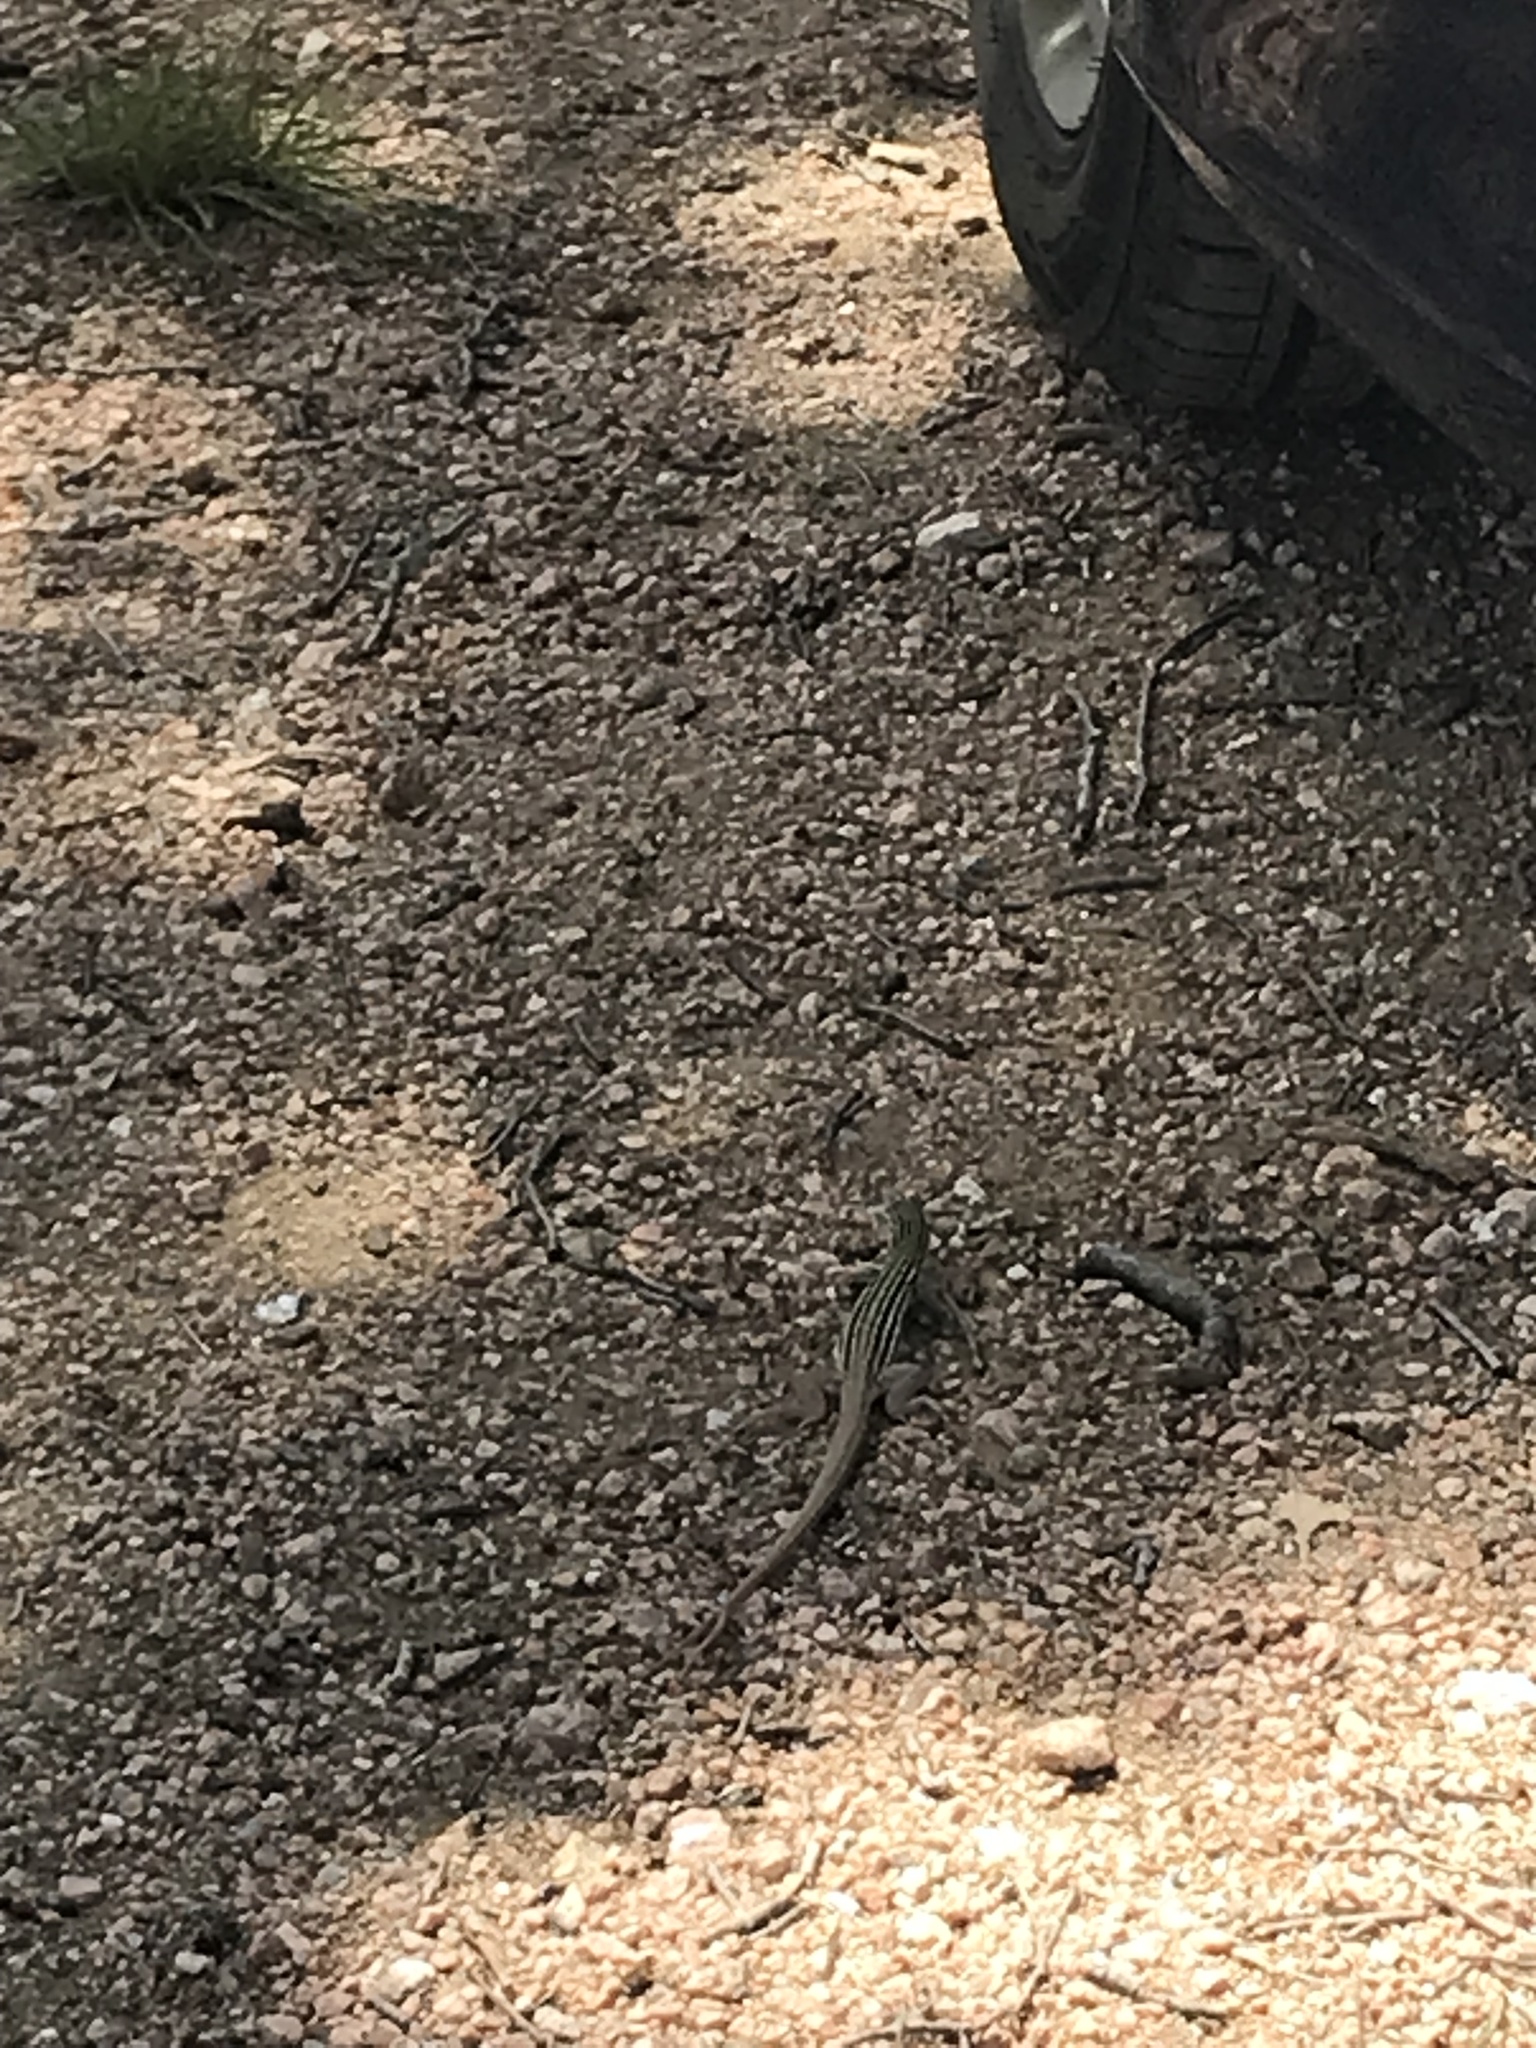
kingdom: Animalia
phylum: Chordata
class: Squamata
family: Teiidae
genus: Aspidoscelis
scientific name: Aspidoscelis gularis
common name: Eastern spotted whiptail
